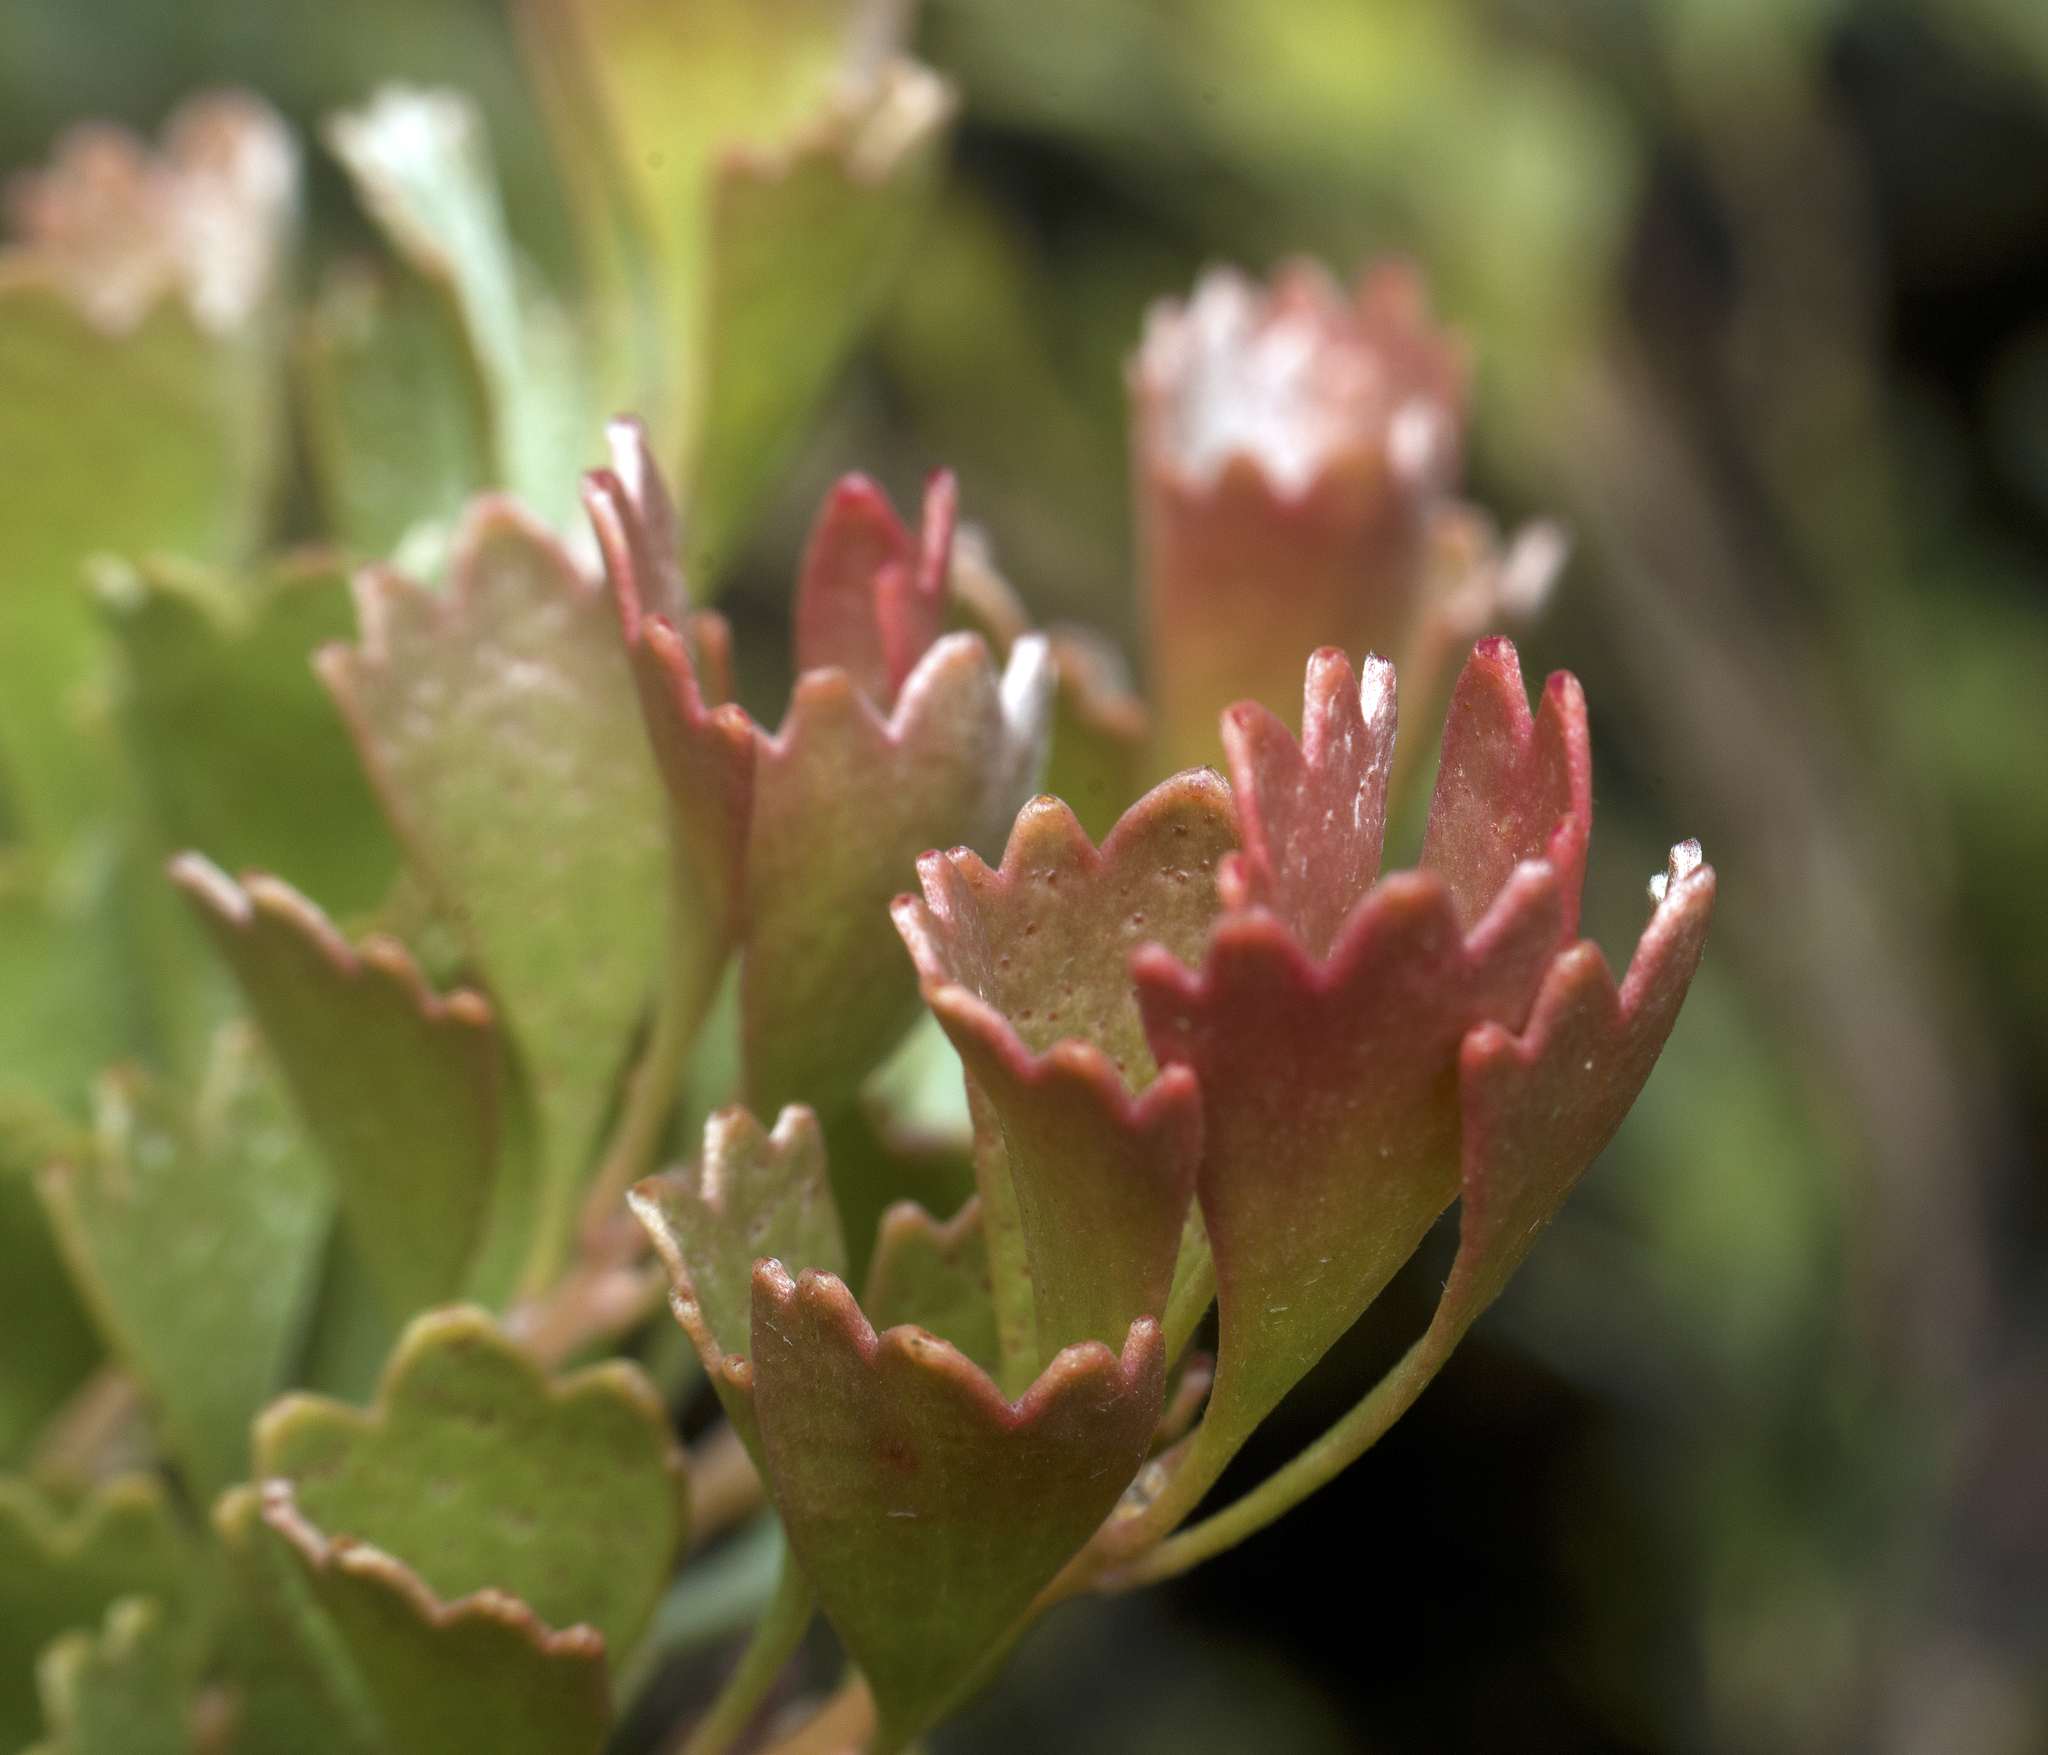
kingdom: Plantae
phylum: Tracheophyta
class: Magnoliopsida
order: Proteales
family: Proteaceae
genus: Adenanthos
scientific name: Adenanthos cuneatus
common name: Flamebush
